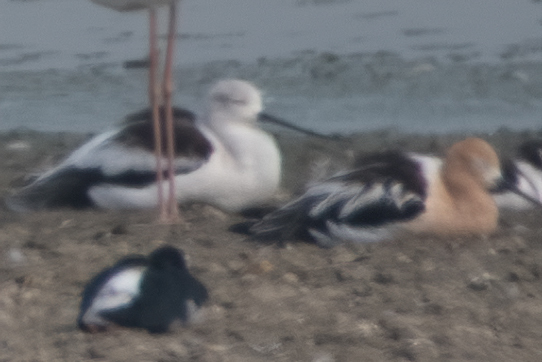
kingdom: Animalia
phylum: Chordata
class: Aves
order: Charadriiformes
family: Recurvirostridae
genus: Recurvirostra
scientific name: Recurvirostra americana
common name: American avocet
